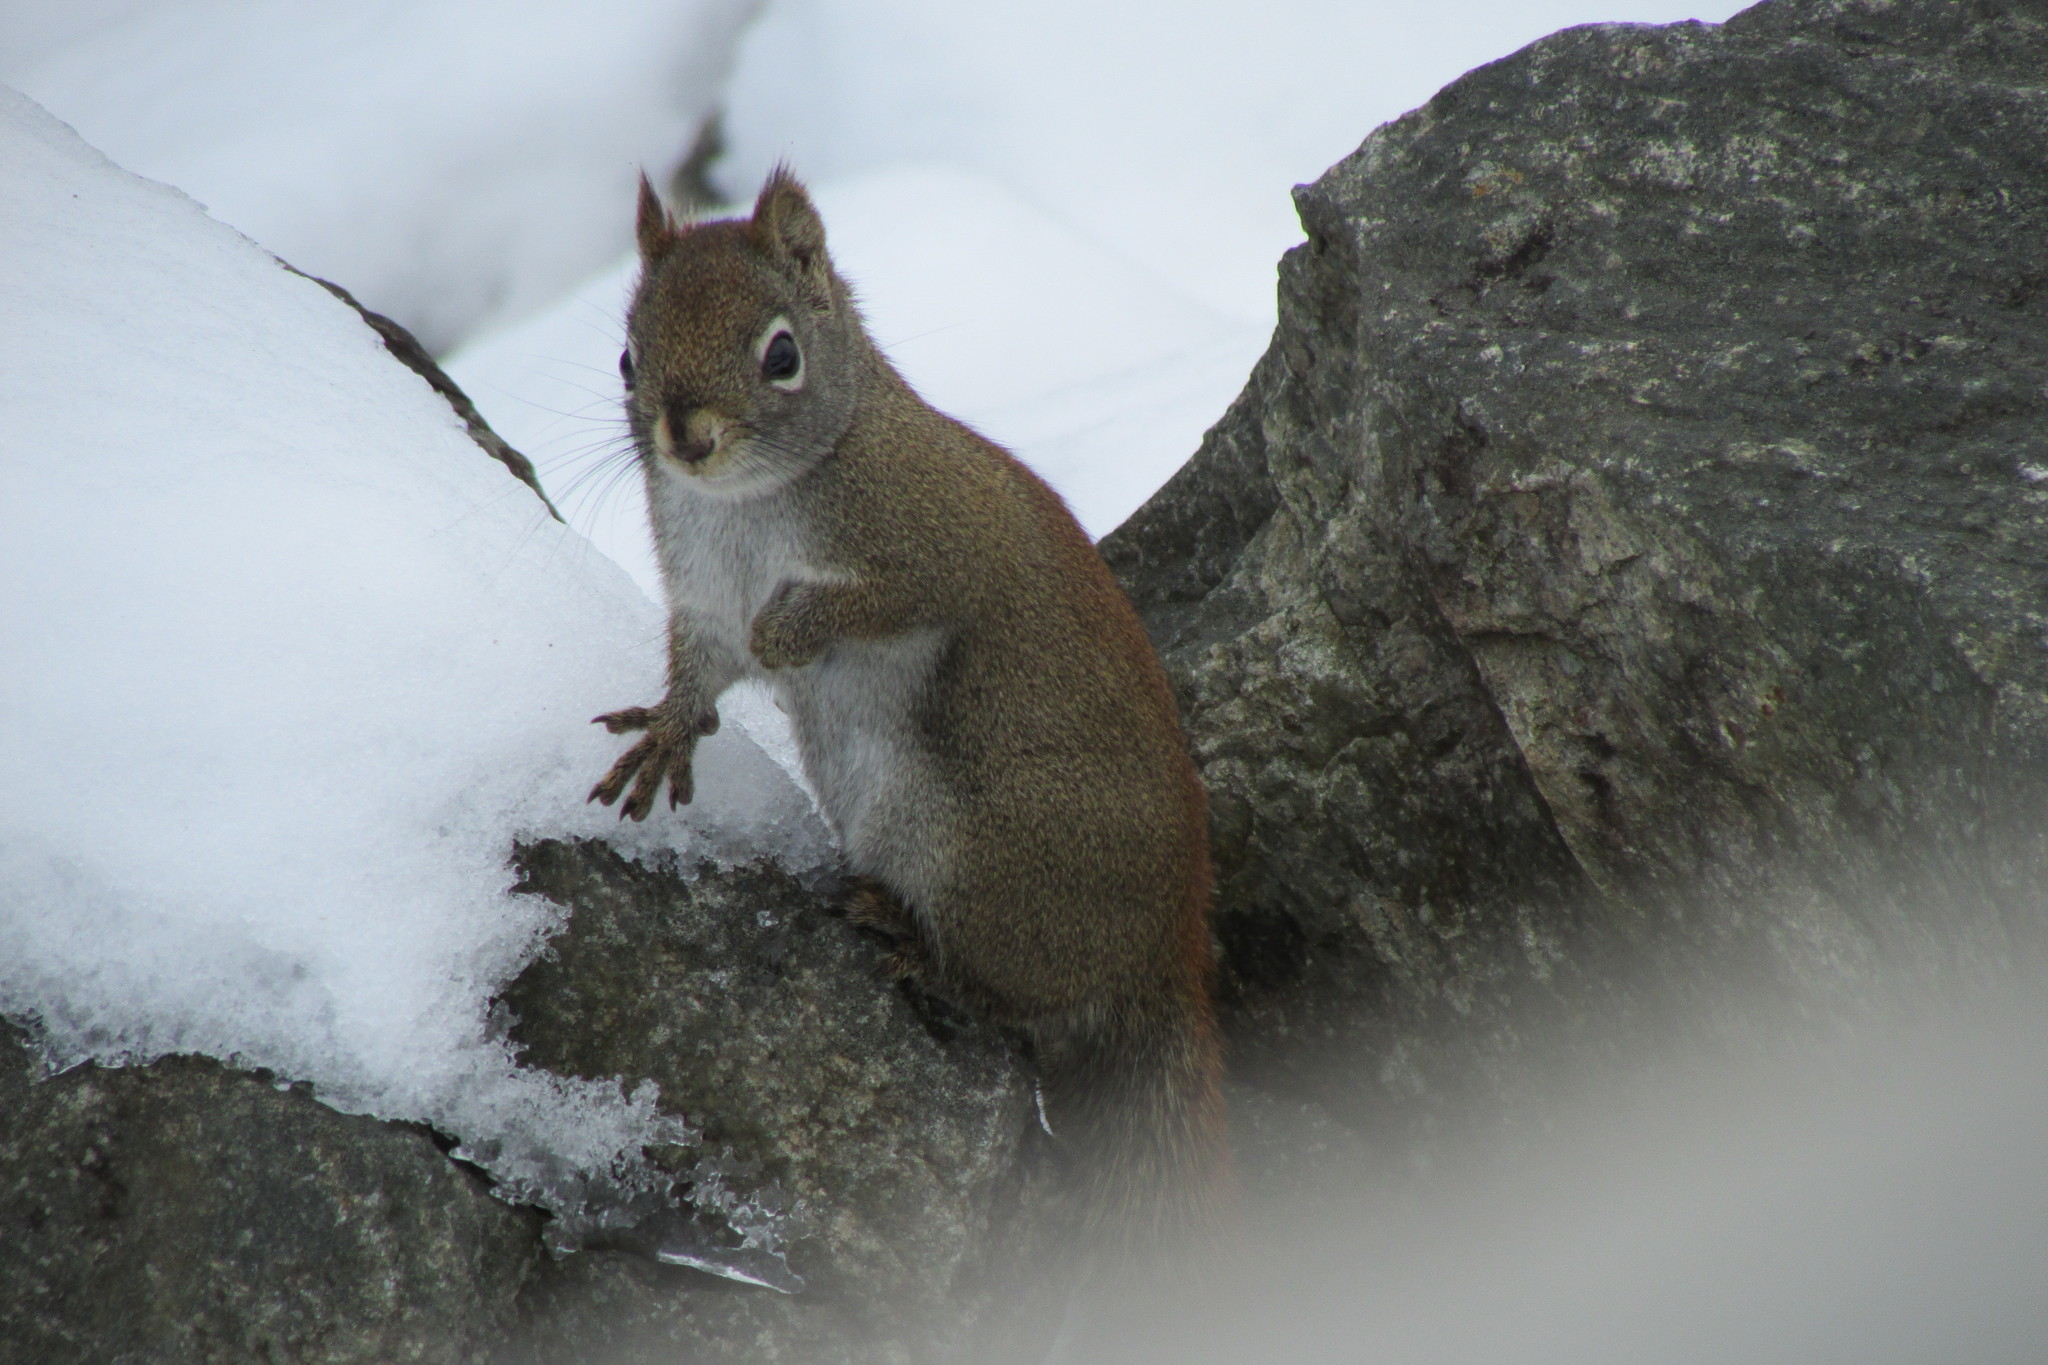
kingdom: Animalia
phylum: Chordata
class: Mammalia
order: Rodentia
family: Sciuridae
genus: Tamiasciurus
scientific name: Tamiasciurus hudsonicus
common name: Red squirrel
